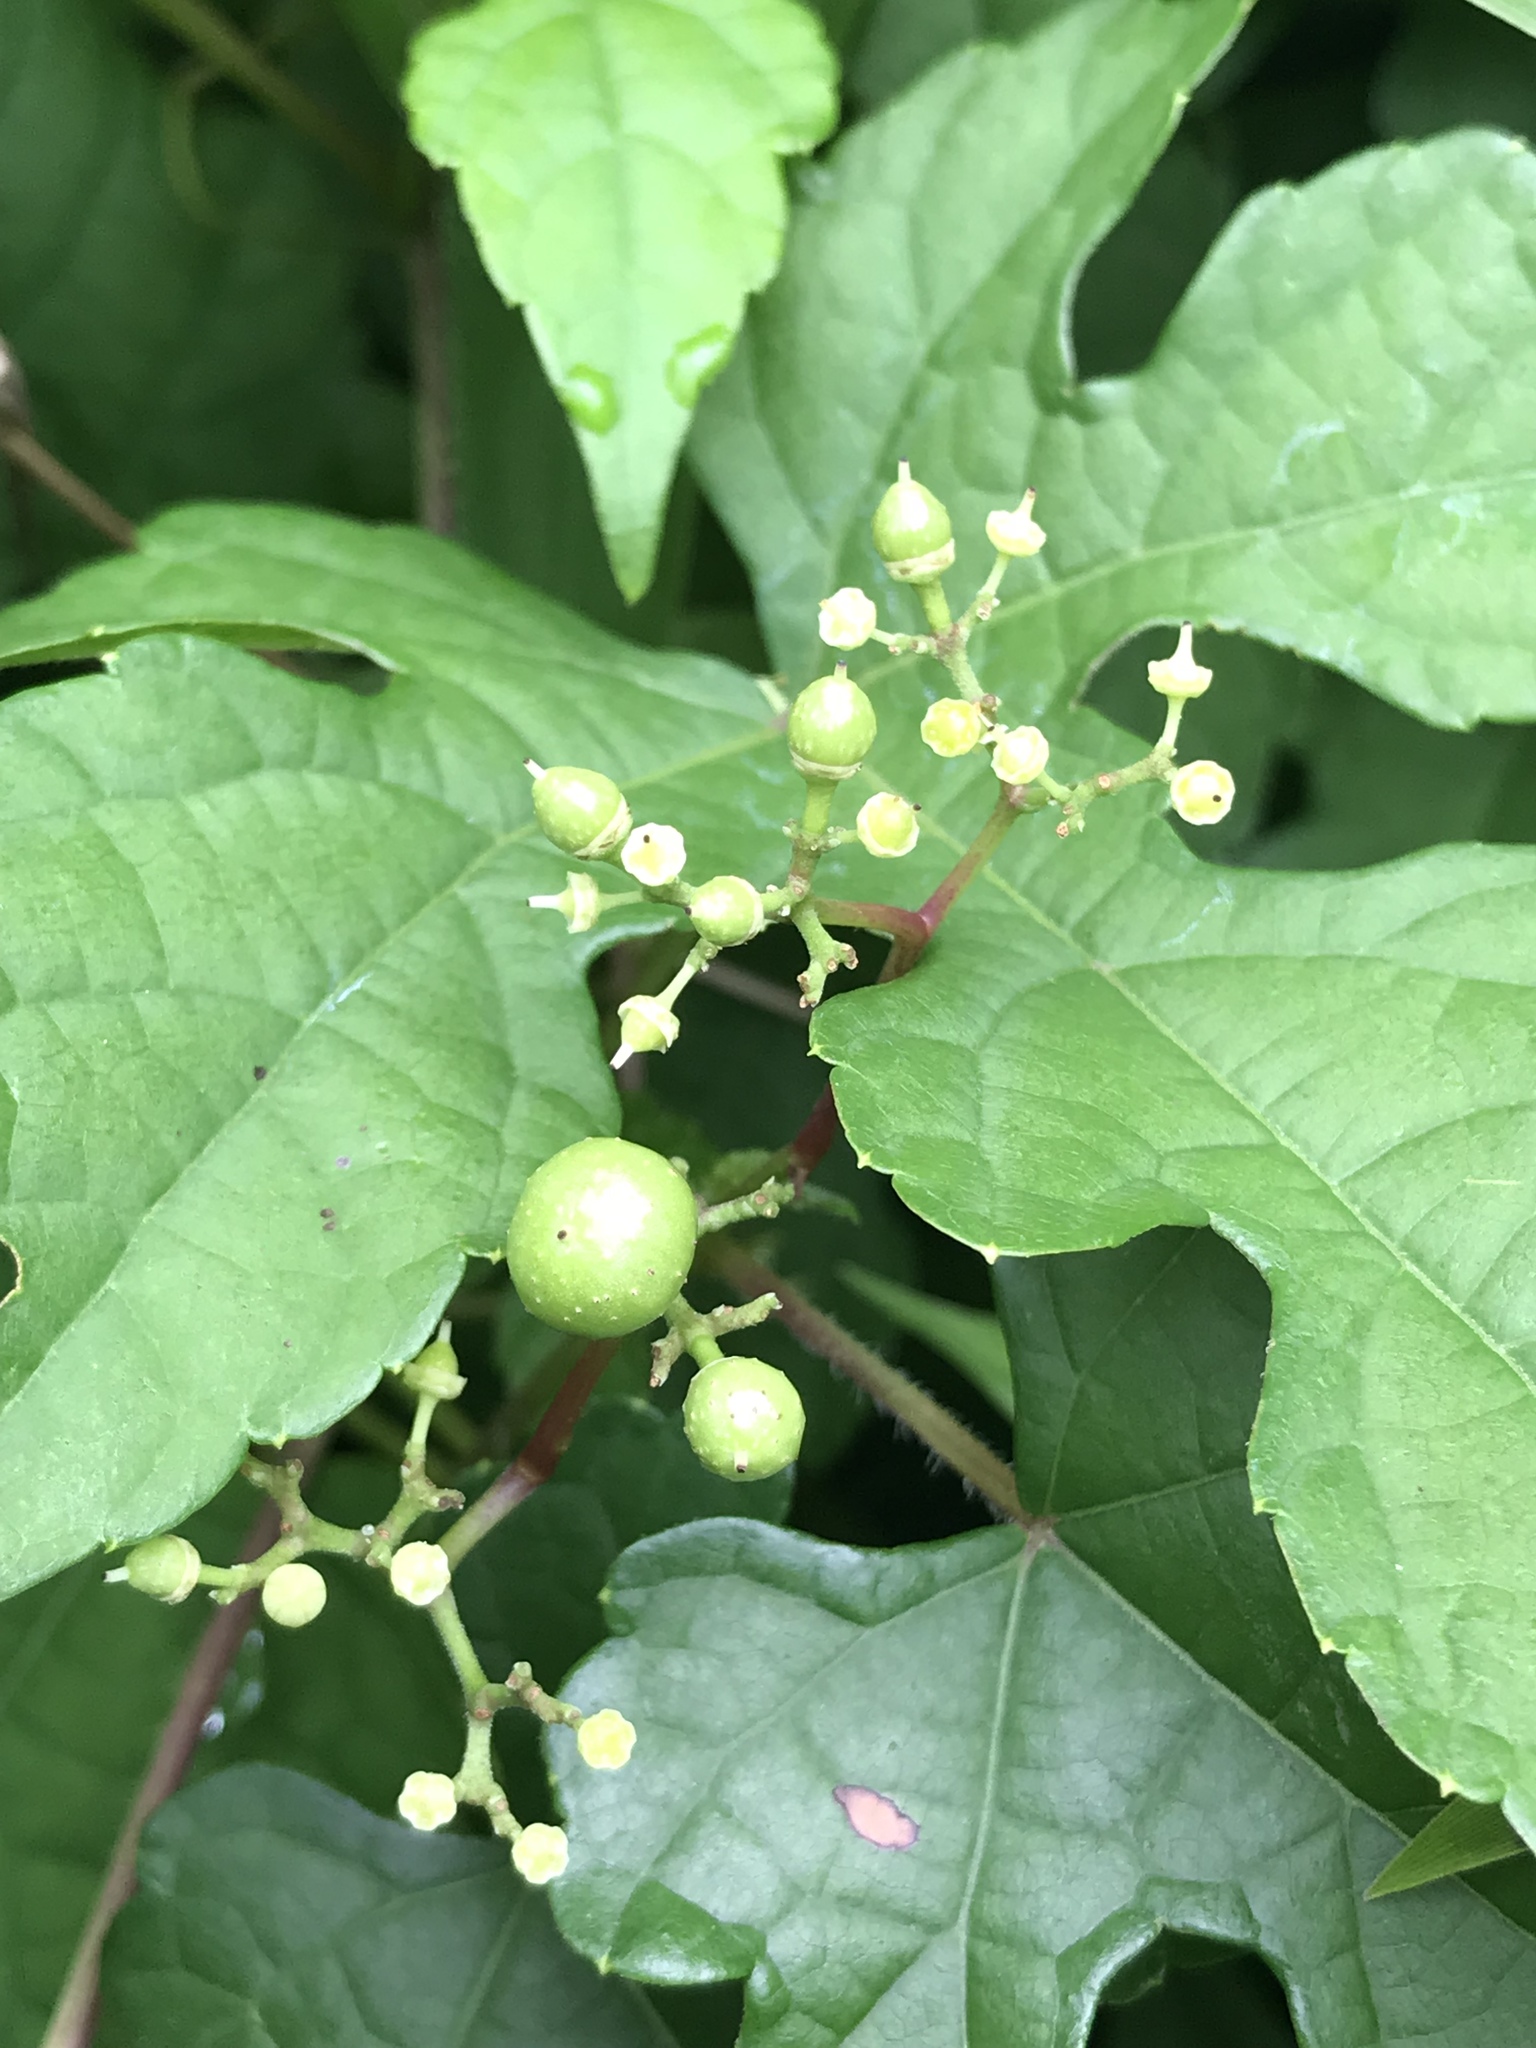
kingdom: Plantae
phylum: Tracheophyta
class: Magnoliopsida
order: Vitales
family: Vitaceae
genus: Ampelopsis
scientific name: Ampelopsis glandulosa
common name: Amur peppervine
